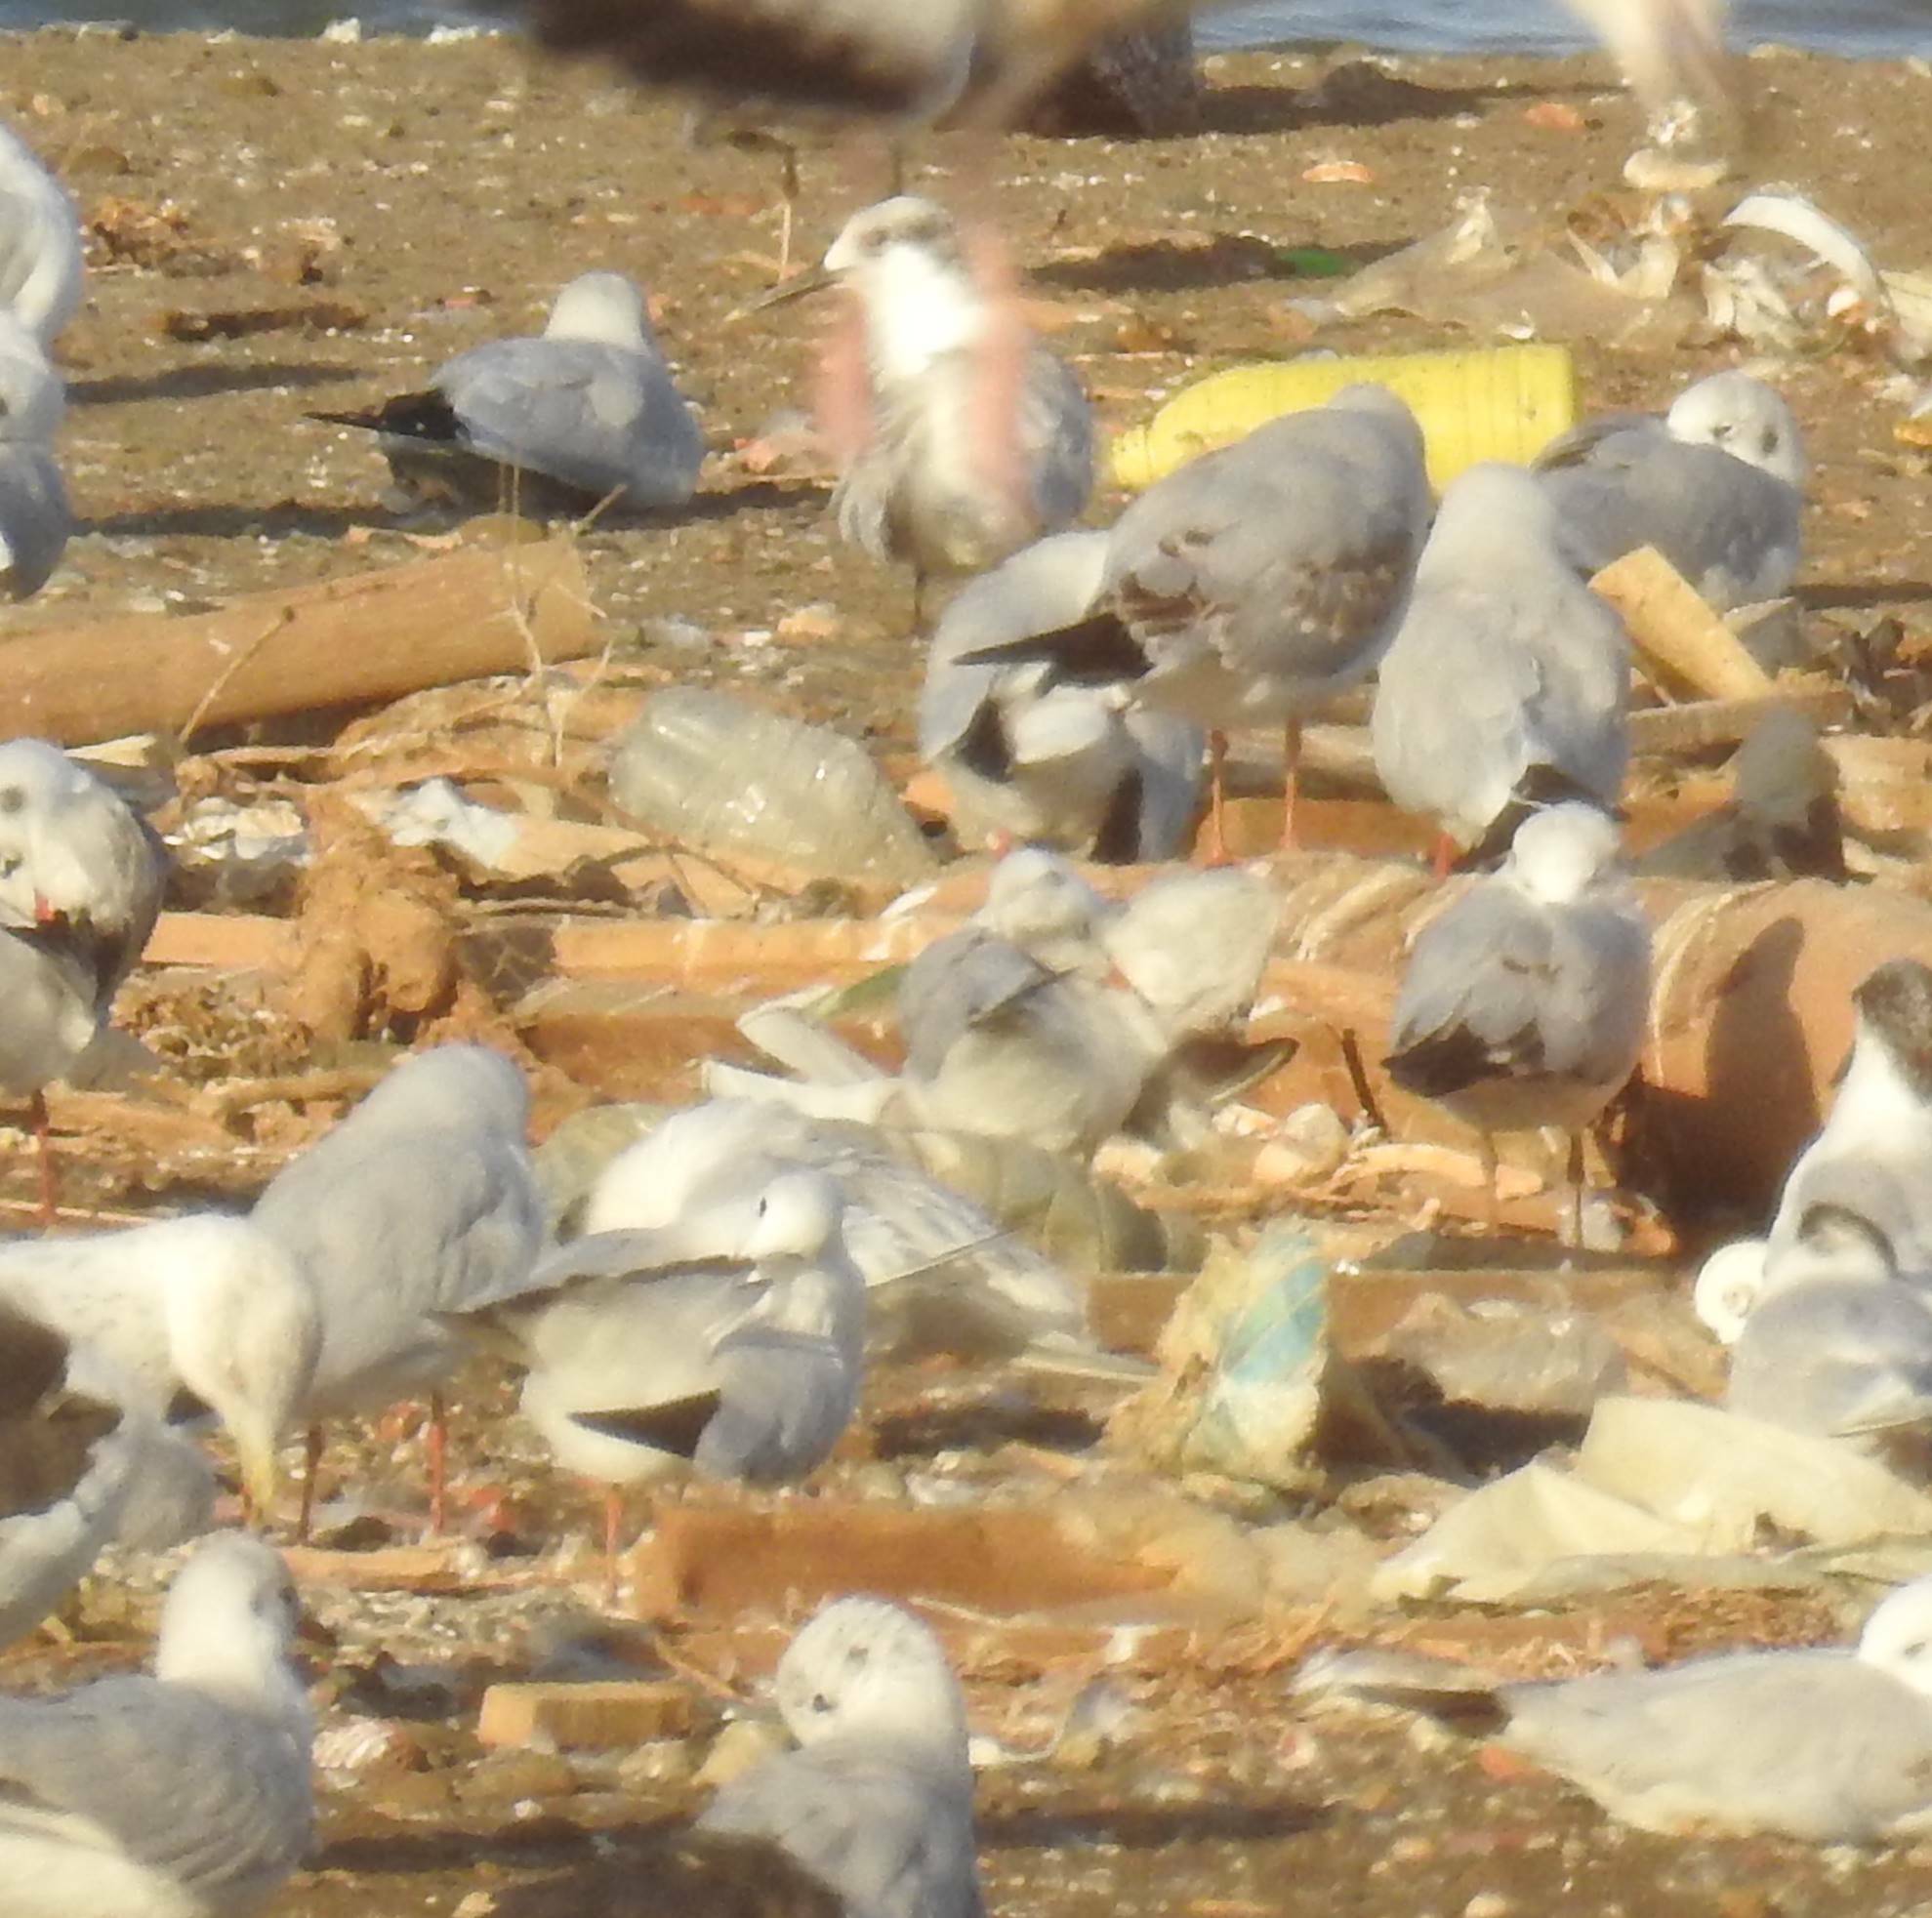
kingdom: Animalia
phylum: Chordata
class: Aves
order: Charadriiformes
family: Laridae
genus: Thalasseus
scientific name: Thalasseus sandvicensis
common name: Sandwich tern
